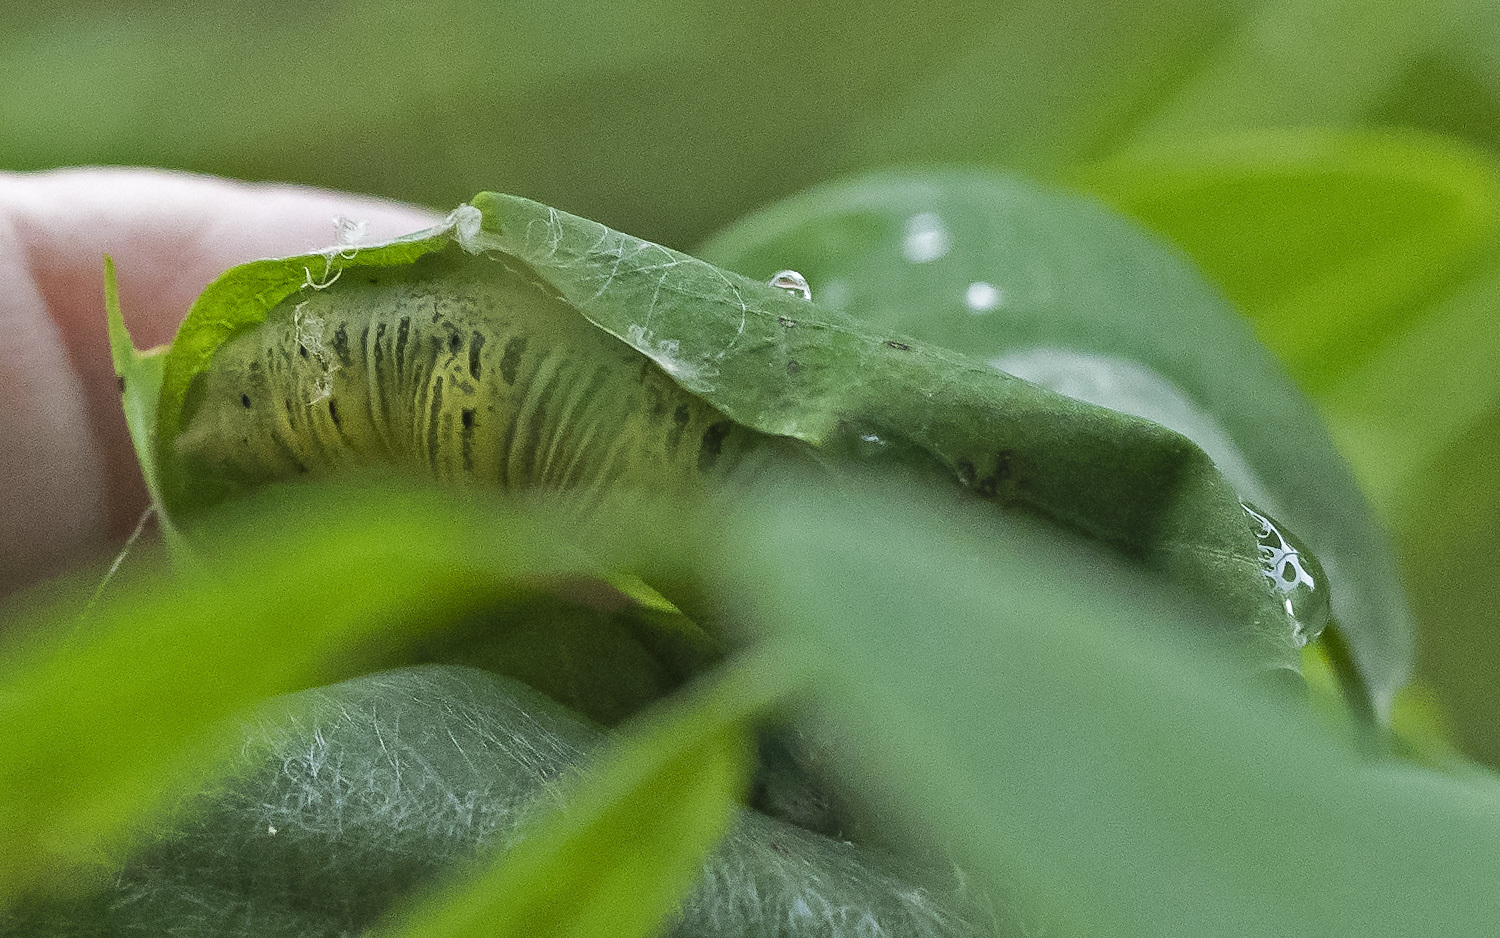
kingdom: Animalia
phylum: Arthropoda
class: Insecta
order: Lepidoptera
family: Hesperiidae
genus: Epargyreus
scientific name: Epargyreus clarus
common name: Silver-spotted skipper
